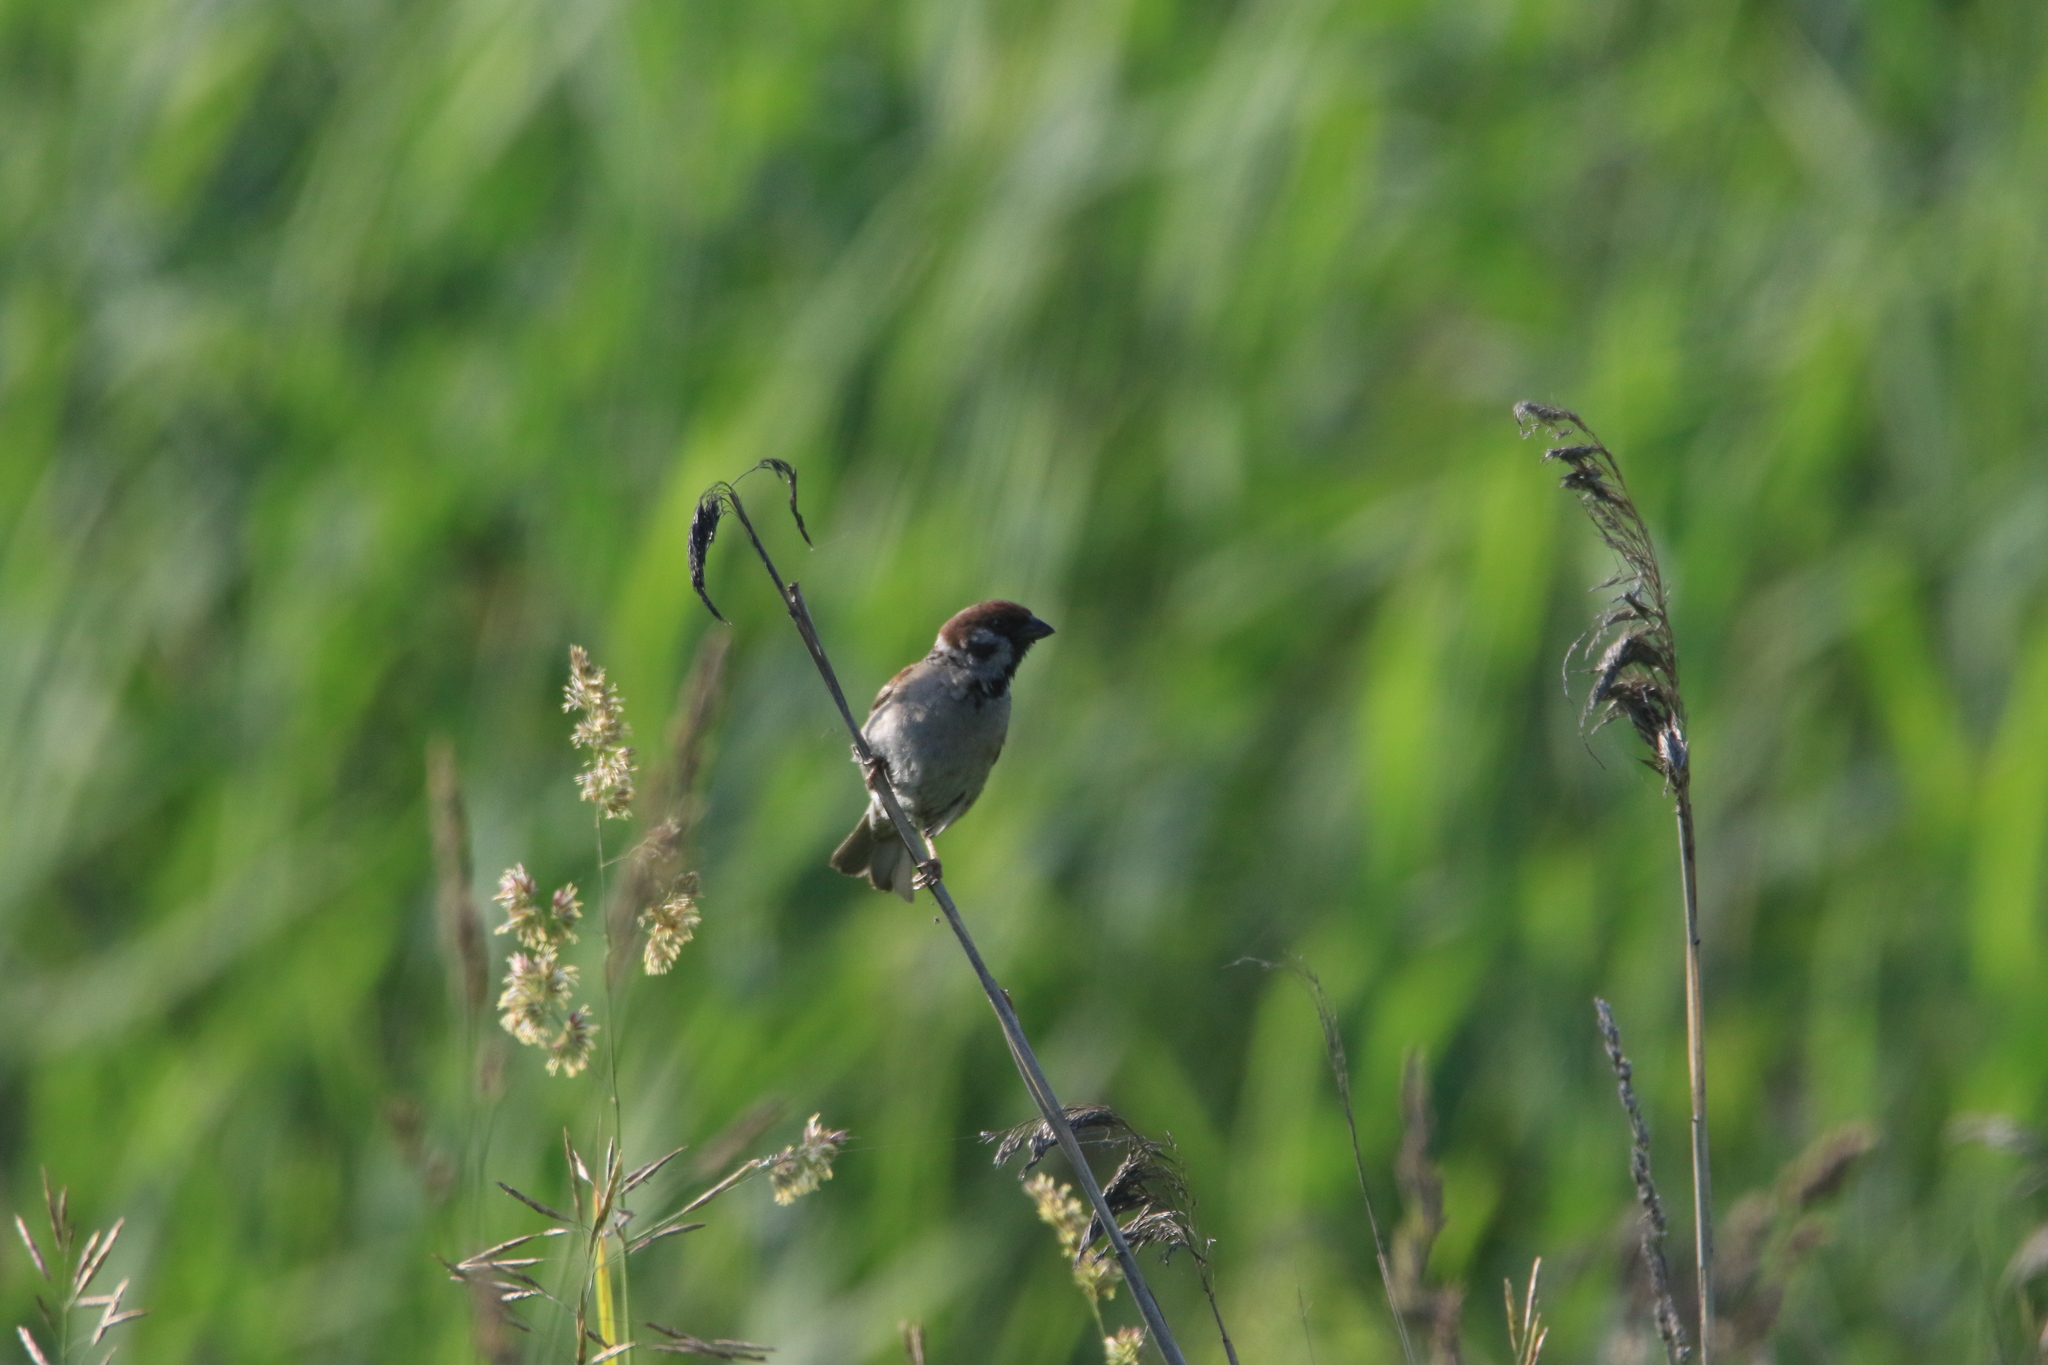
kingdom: Animalia
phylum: Chordata
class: Aves
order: Passeriformes
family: Passeridae
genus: Passer
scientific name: Passer montanus
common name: Eurasian tree sparrow
